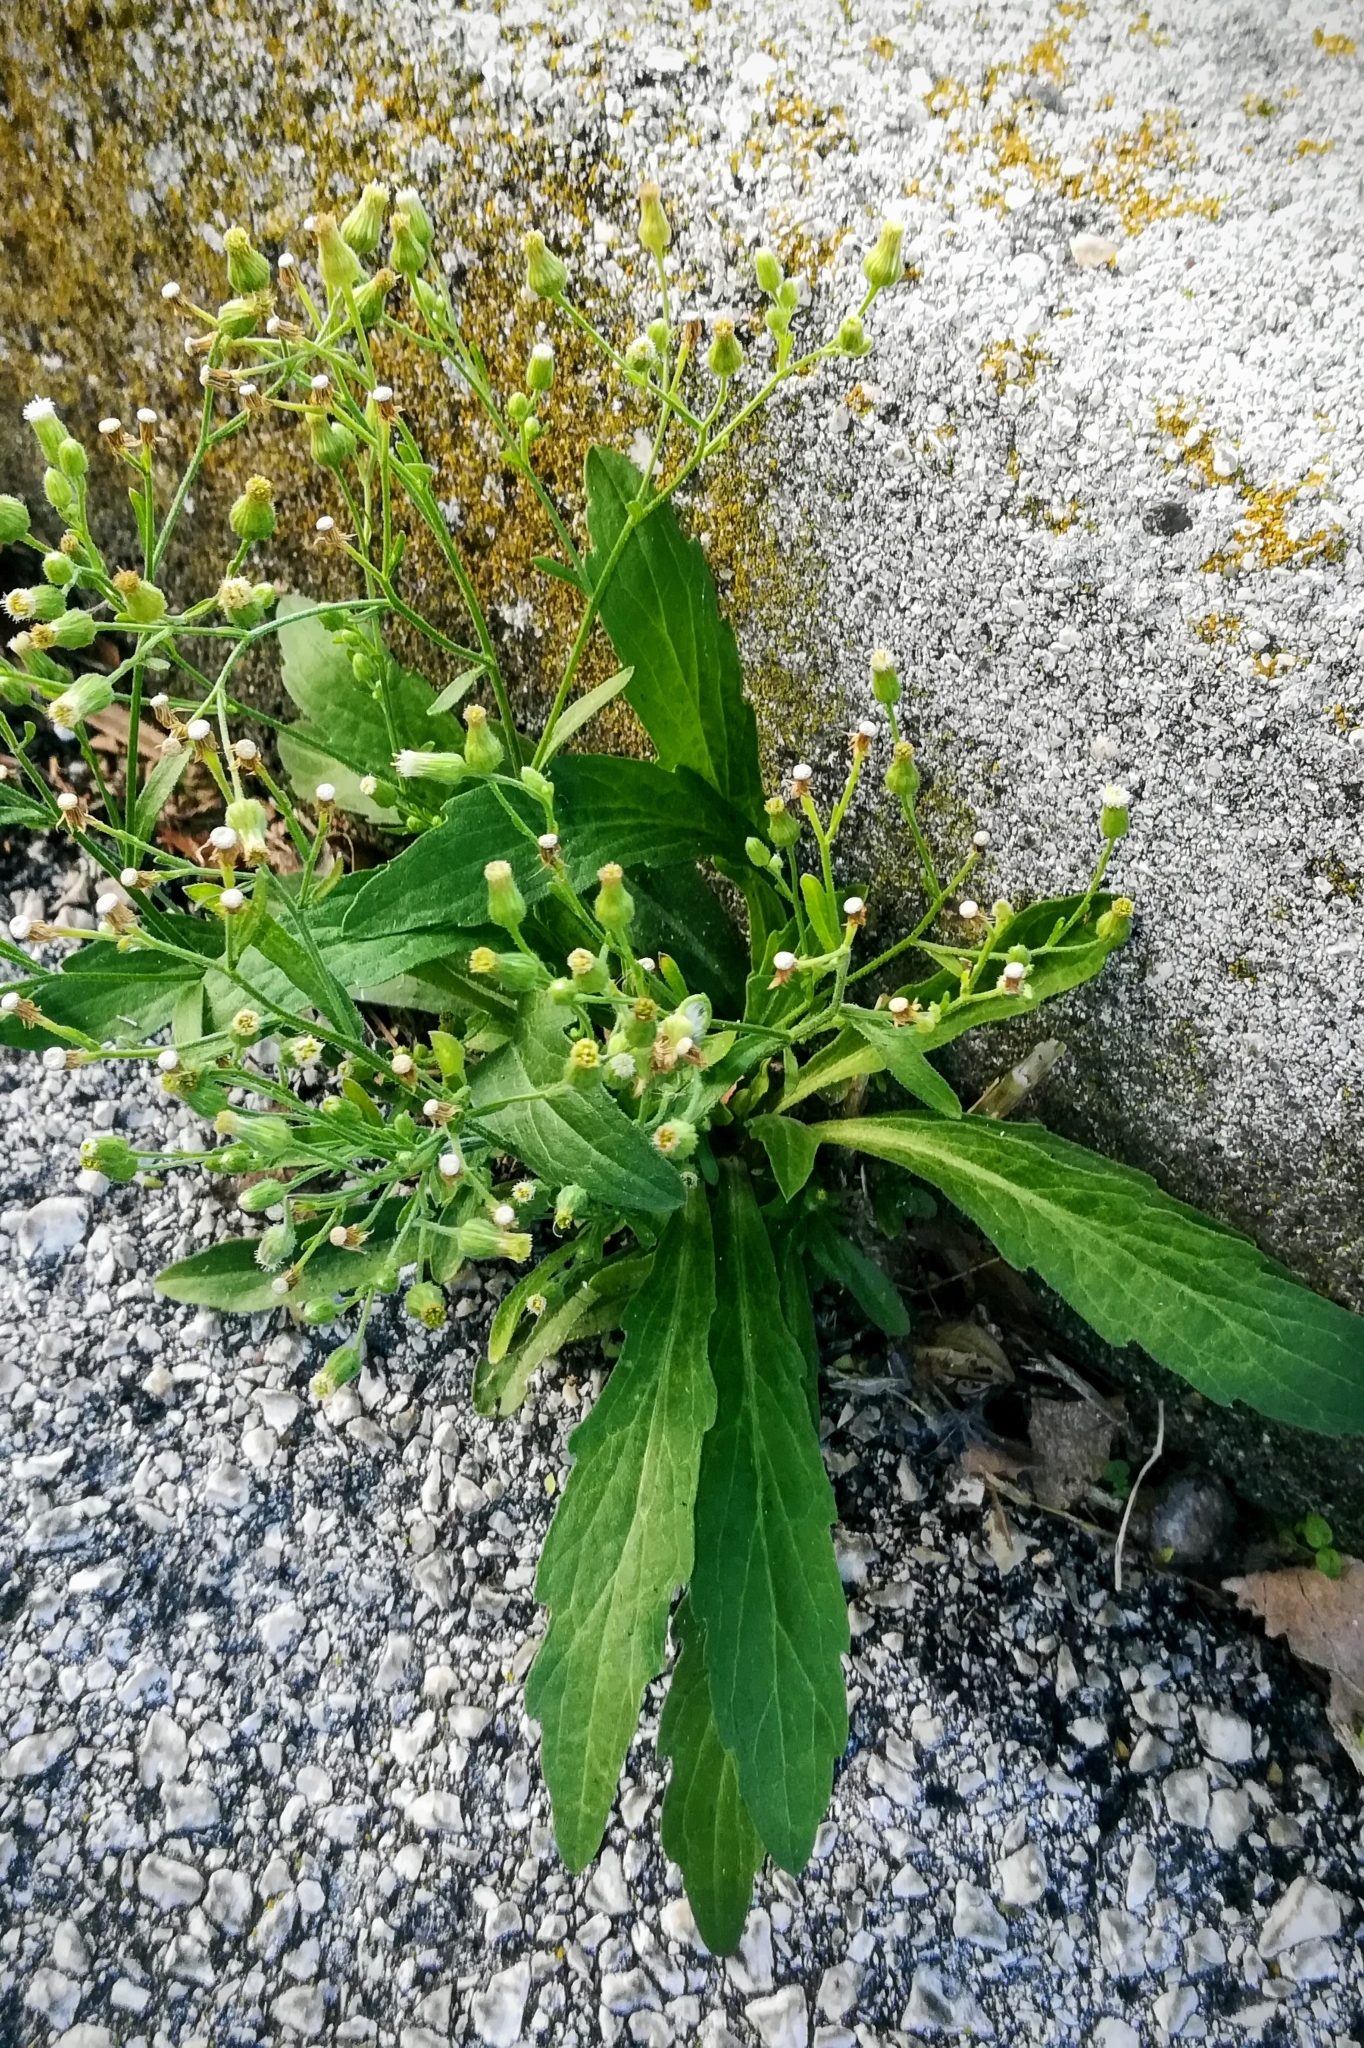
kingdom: Plantae
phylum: Tracheophyta
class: Magnoliopsida
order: Asterales
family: Asteraceae
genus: Erigeron
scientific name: Erigeron sumatrensis
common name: Daisy
